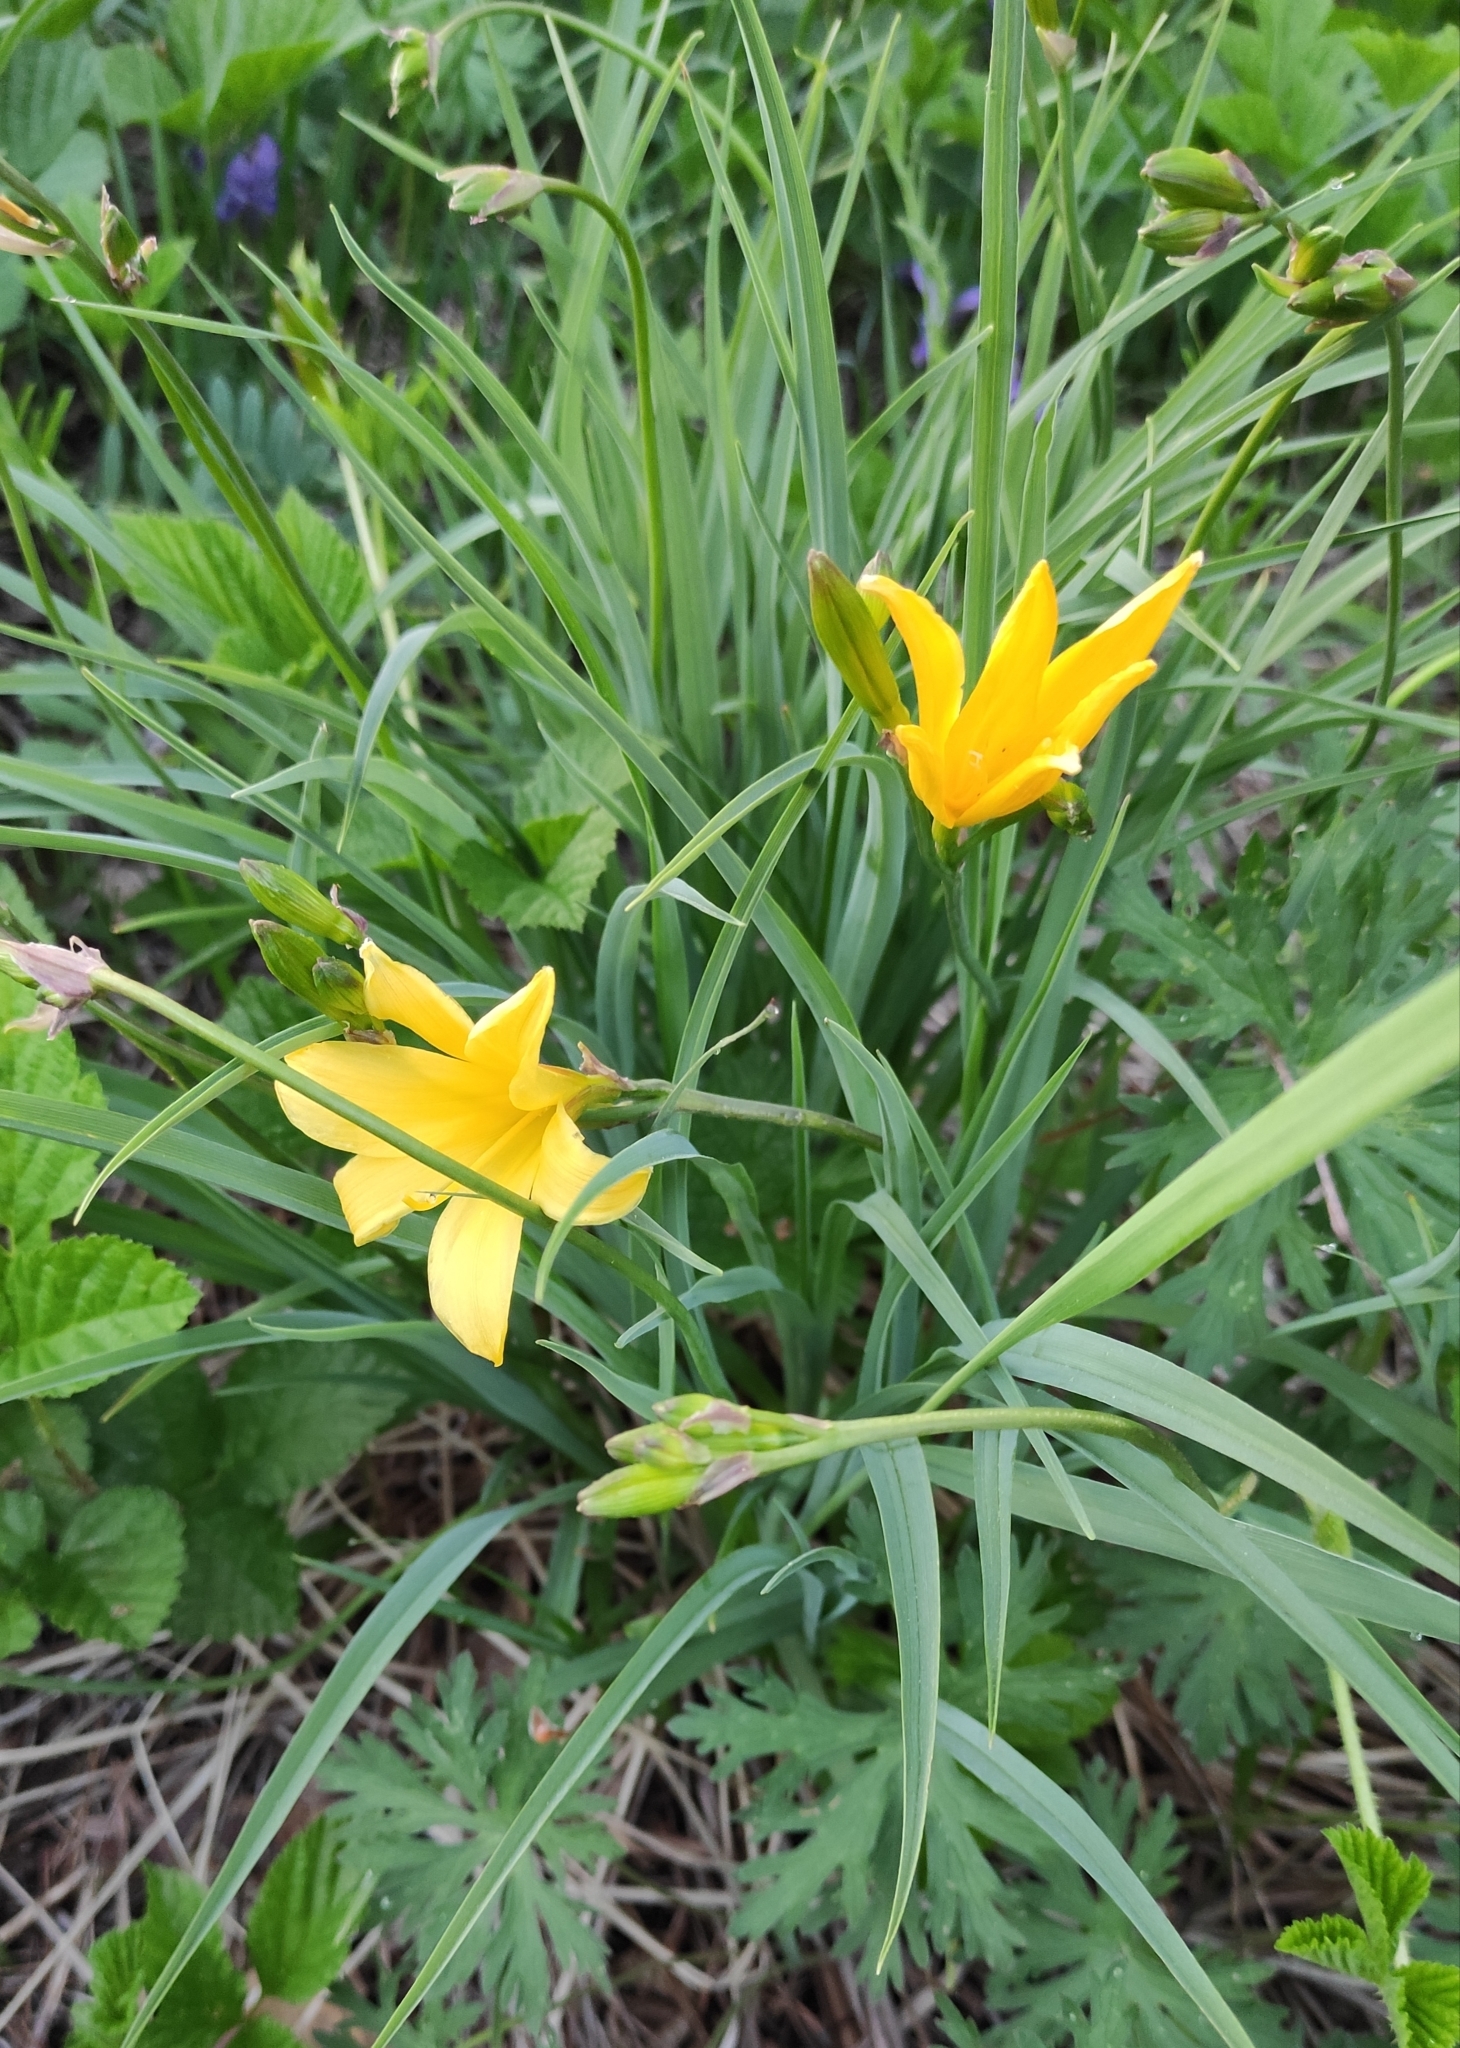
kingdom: Plantae
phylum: Tracheophyta
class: Liliopsida
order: Asparagales
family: Asphodelaceae
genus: Hemerocallis
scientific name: Hemerocallis minor
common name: Small daylily
